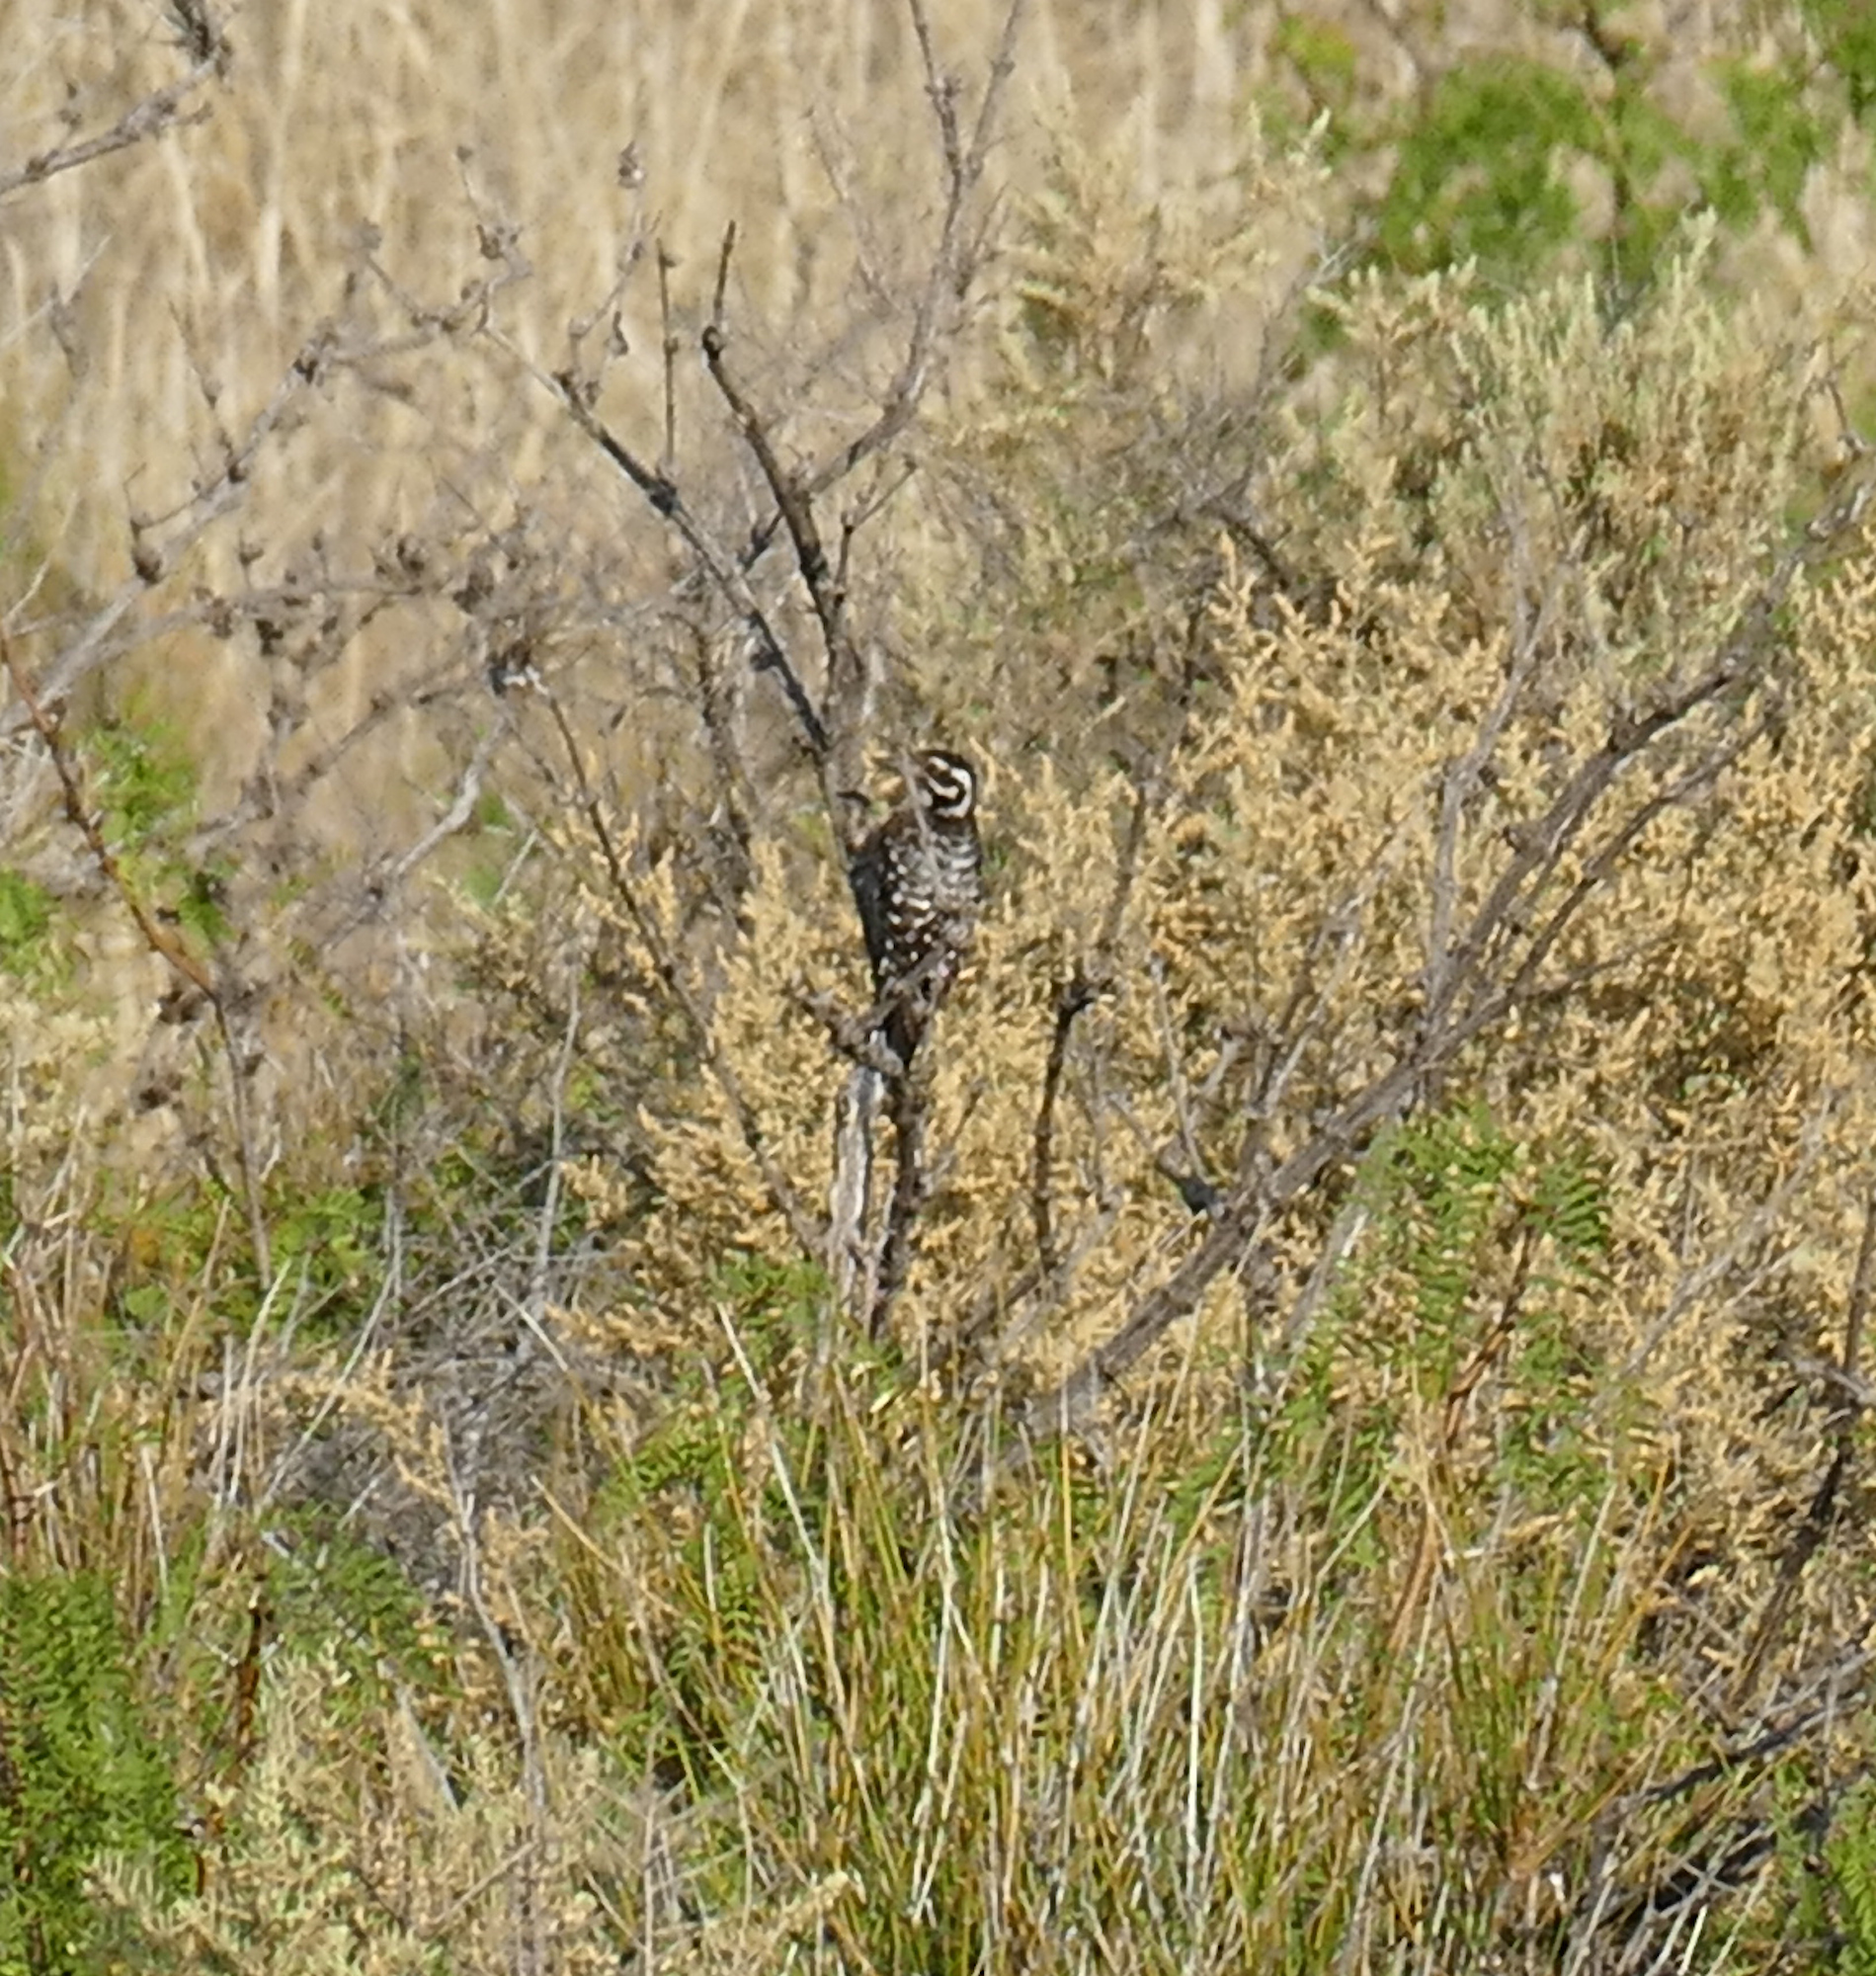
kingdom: Animalia
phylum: Chordata
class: Aves
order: Piciformes
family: Picidae
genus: Dryobates
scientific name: Dryobates scalaris
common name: Ladder-backed woodpecker
